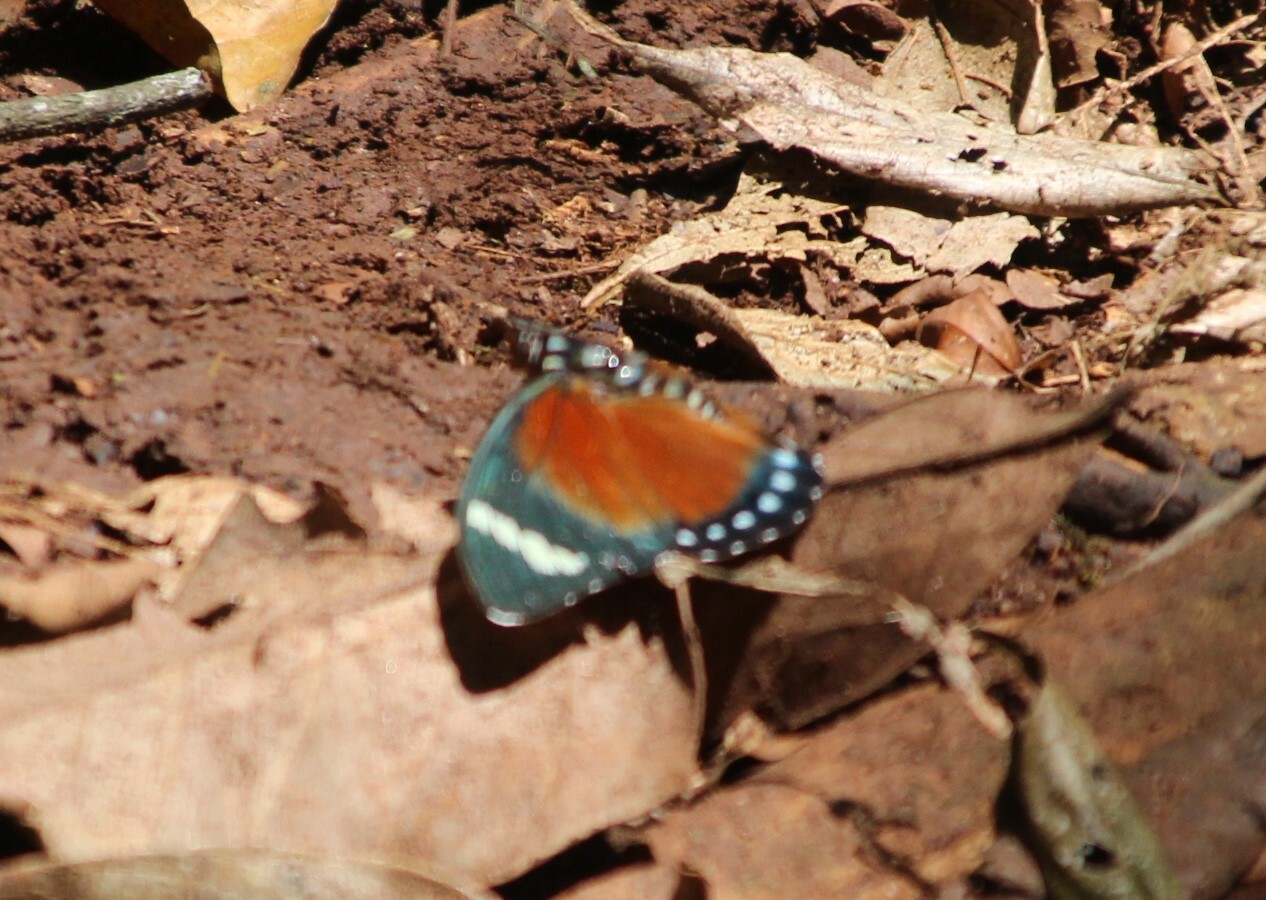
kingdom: Animalia
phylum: Arthropoda
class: Insecta
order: Lepidoptera
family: Nymphalidae
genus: Euphaedra
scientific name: Euphaedra rattrayi
